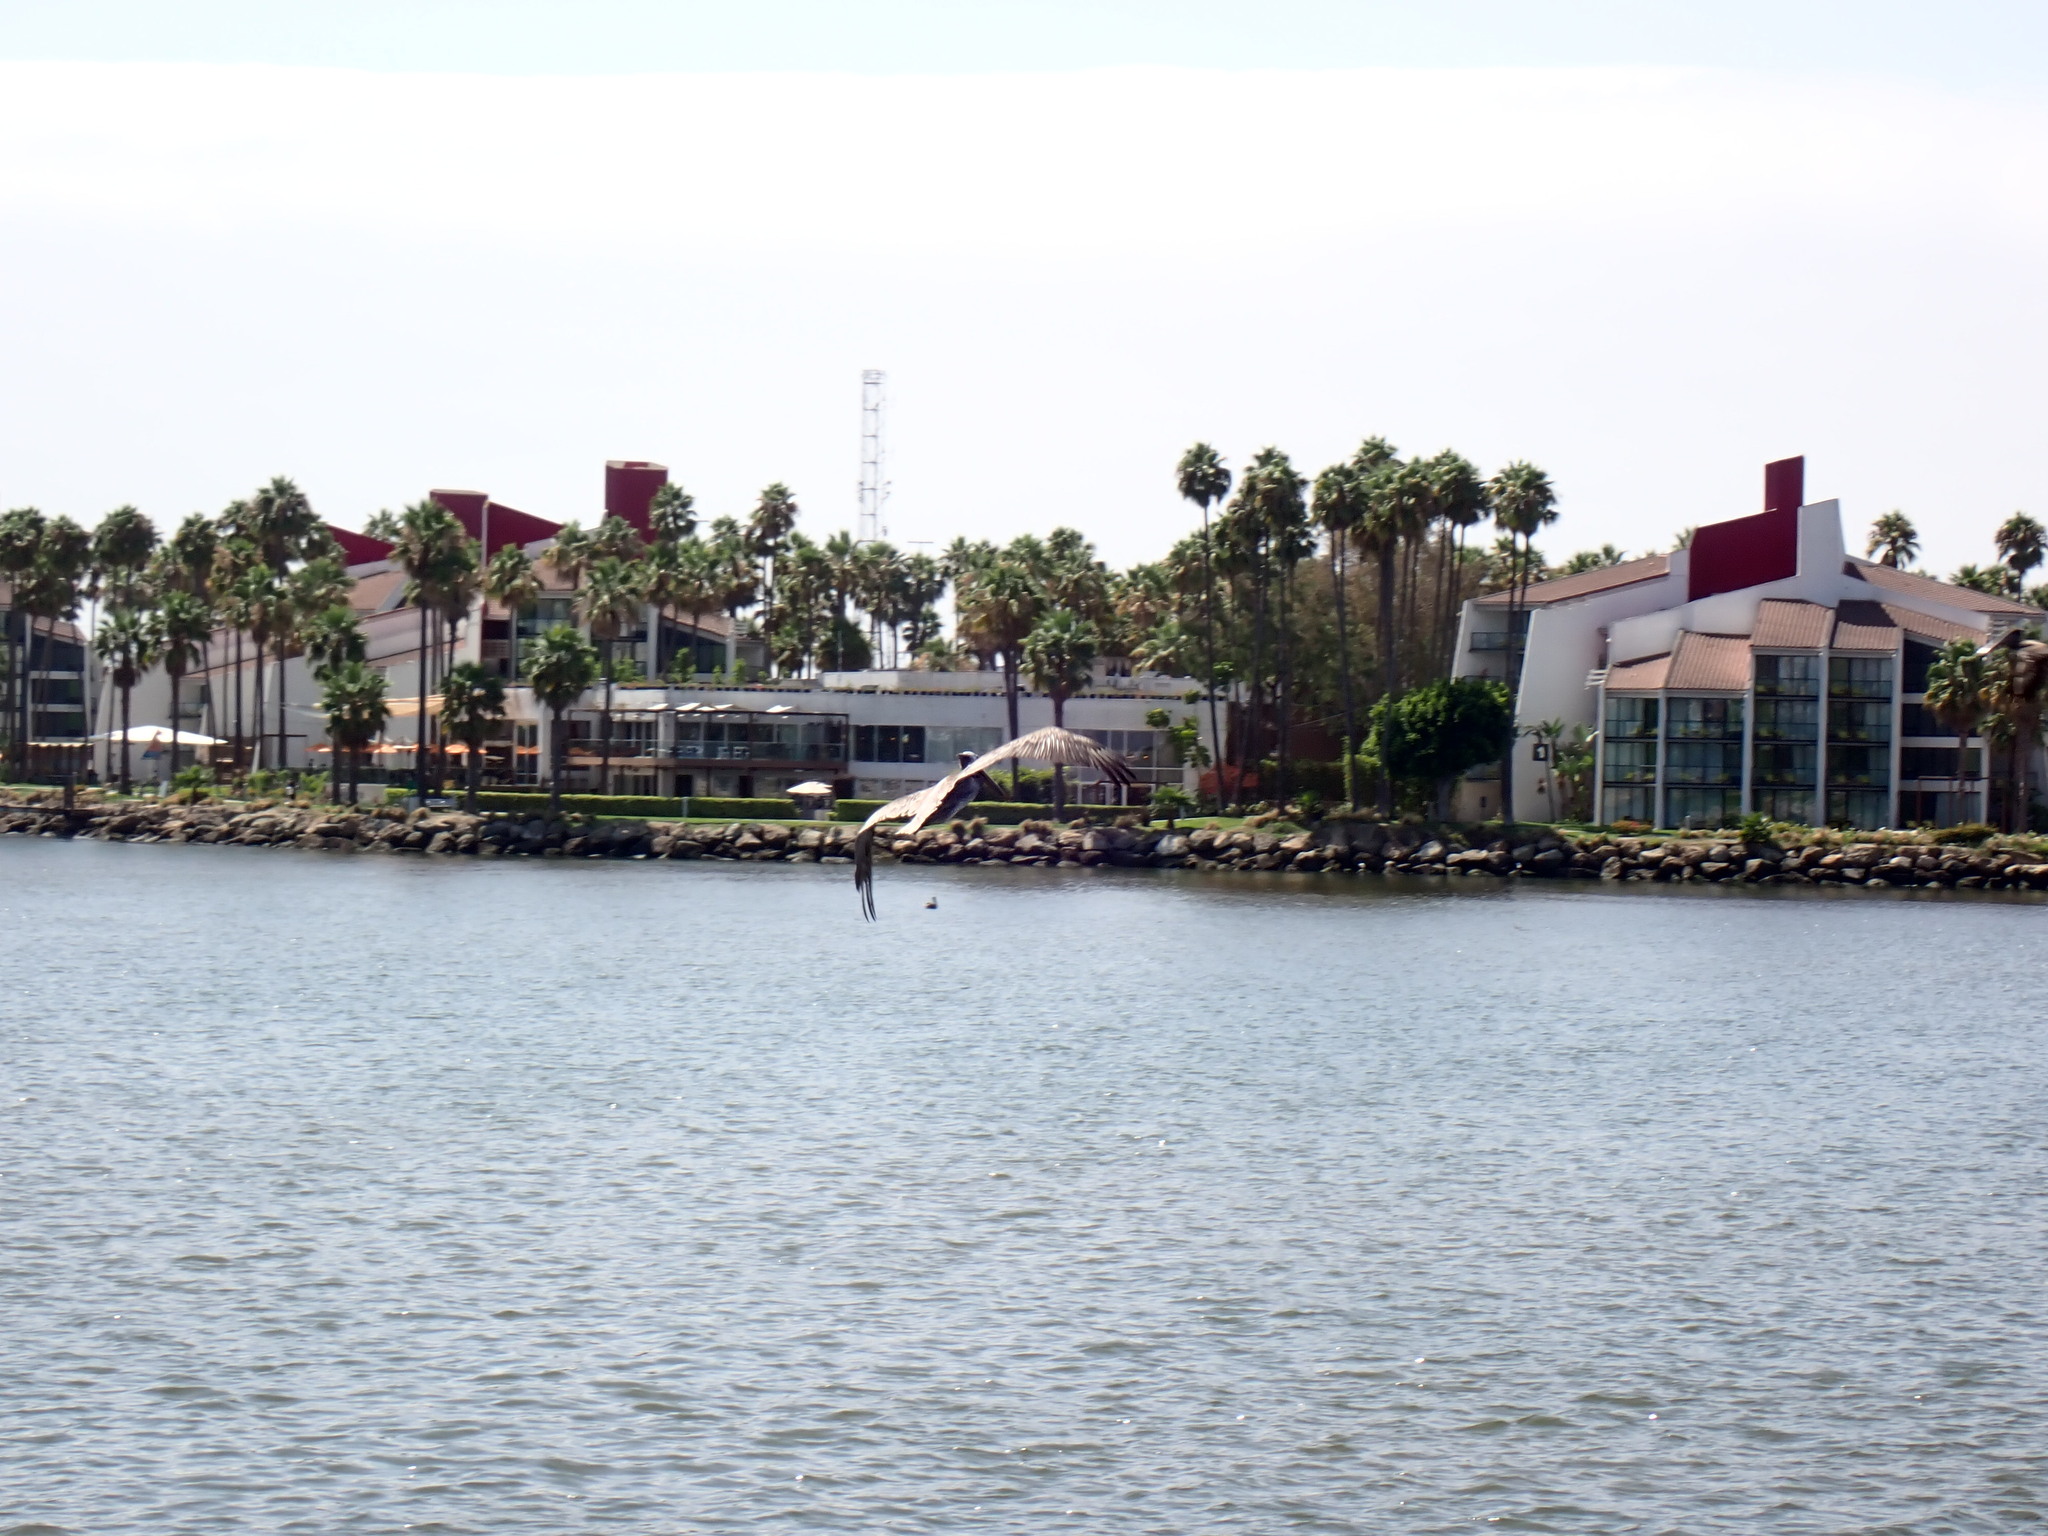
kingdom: Animalia
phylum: Chordata
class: Aves
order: Pelecaniformes
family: Pelecanidae
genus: Pelecanus
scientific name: Pelecanus occidentalis
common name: Brown pelican
